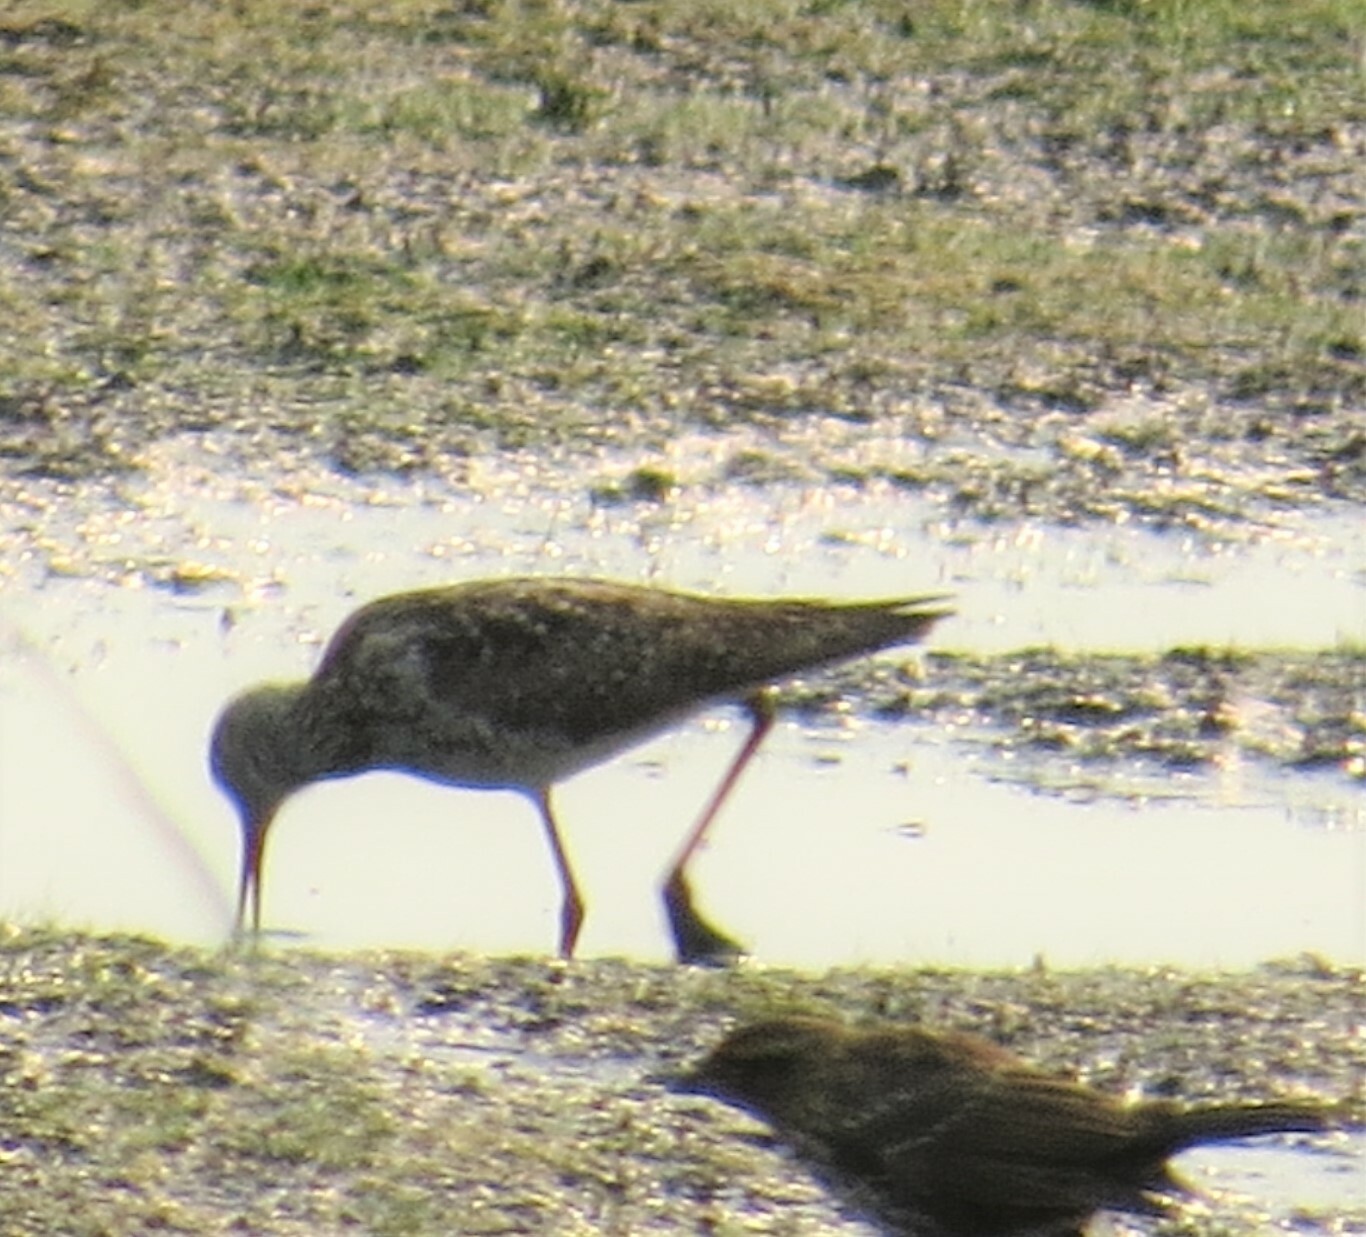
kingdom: Animalia
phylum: Chordata
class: Aves
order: Charadriiformes
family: Scolopacidae
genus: Tringa
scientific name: Tringa flavipes
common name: Lesser yellowlegs
